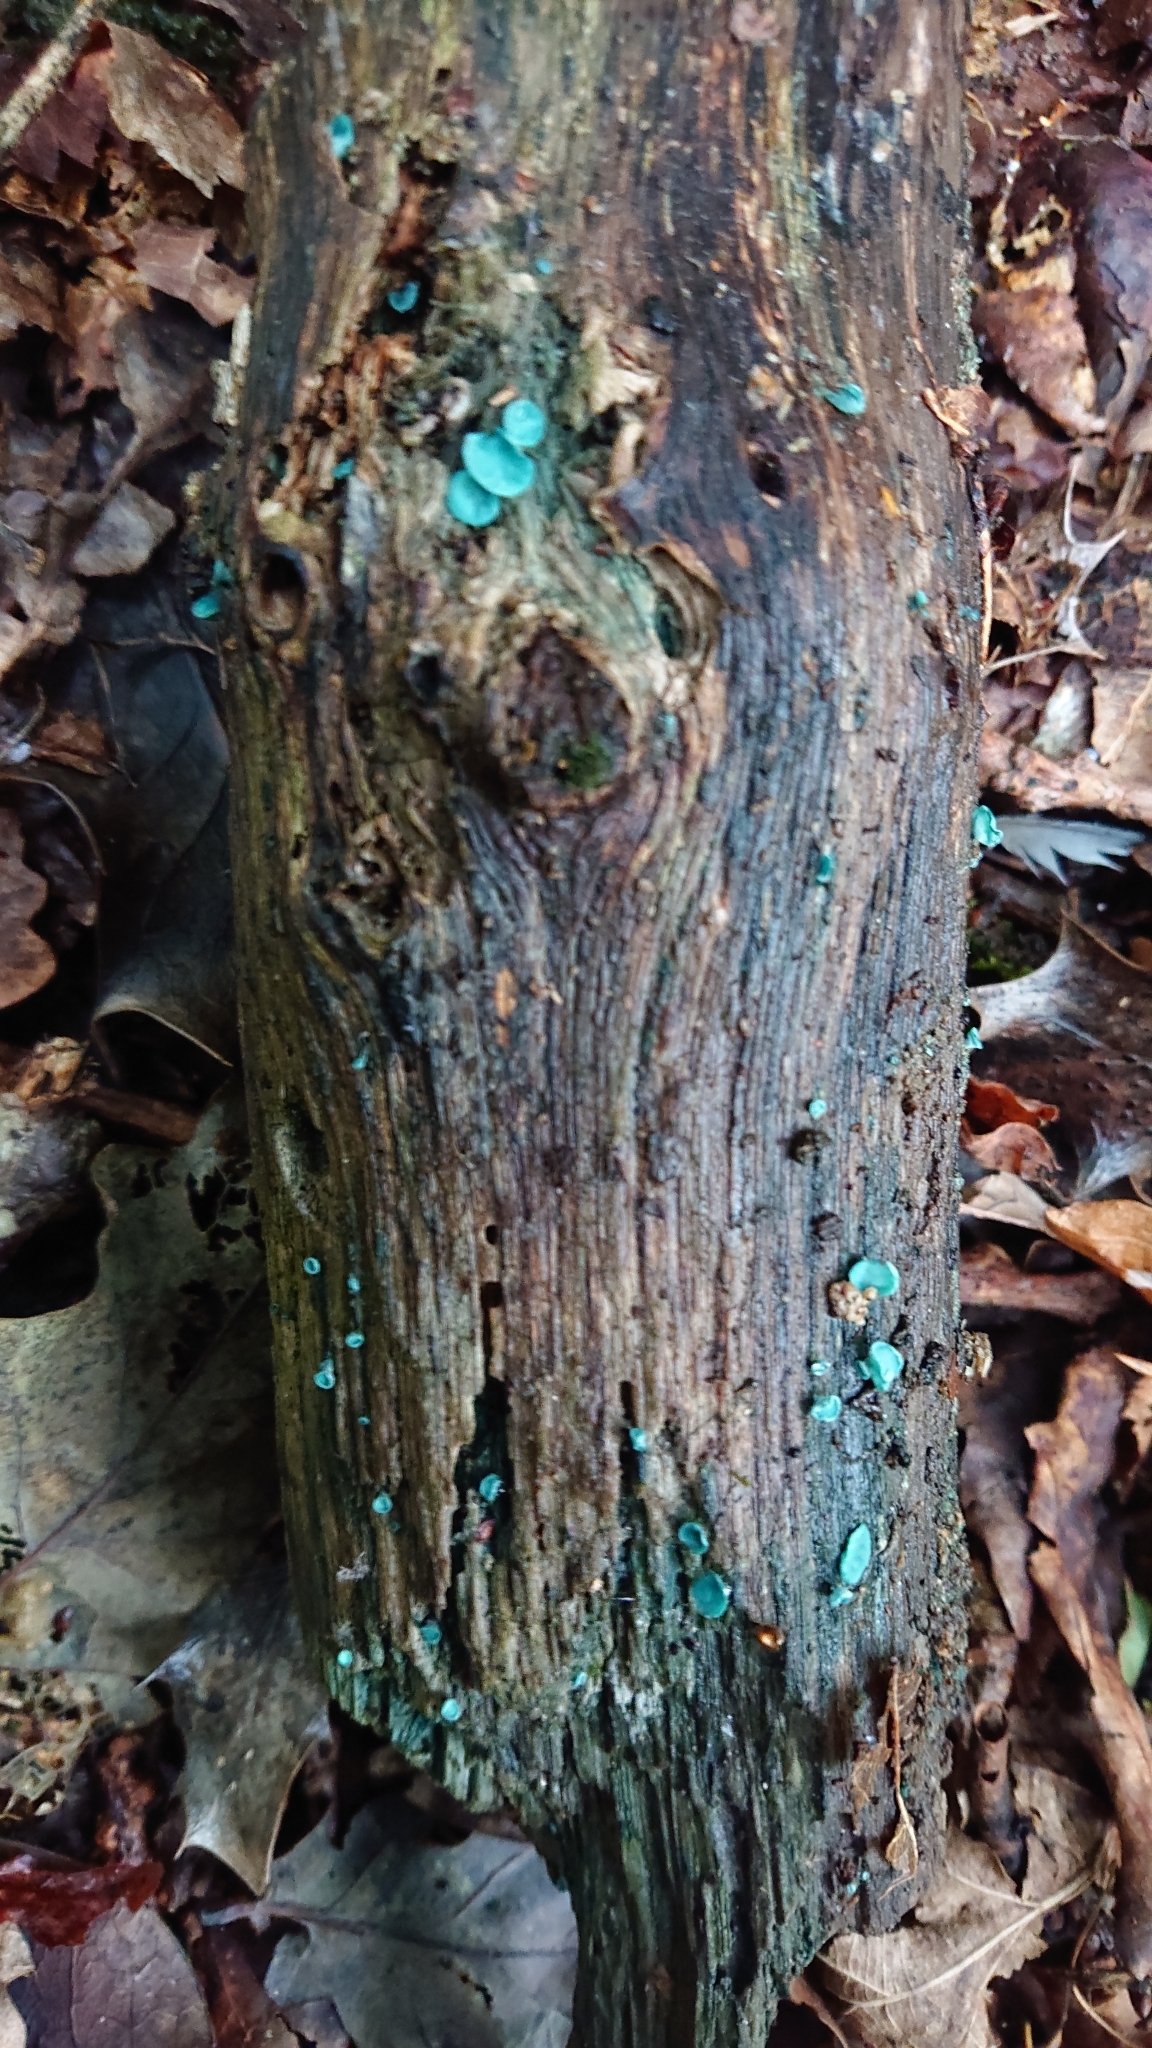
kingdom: Fungi
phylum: Ascomycota
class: Leotiomycetes
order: Helotiales
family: Chlorociboriaceae
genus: Chlorociboria
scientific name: Chlorociboria aeruginascens
